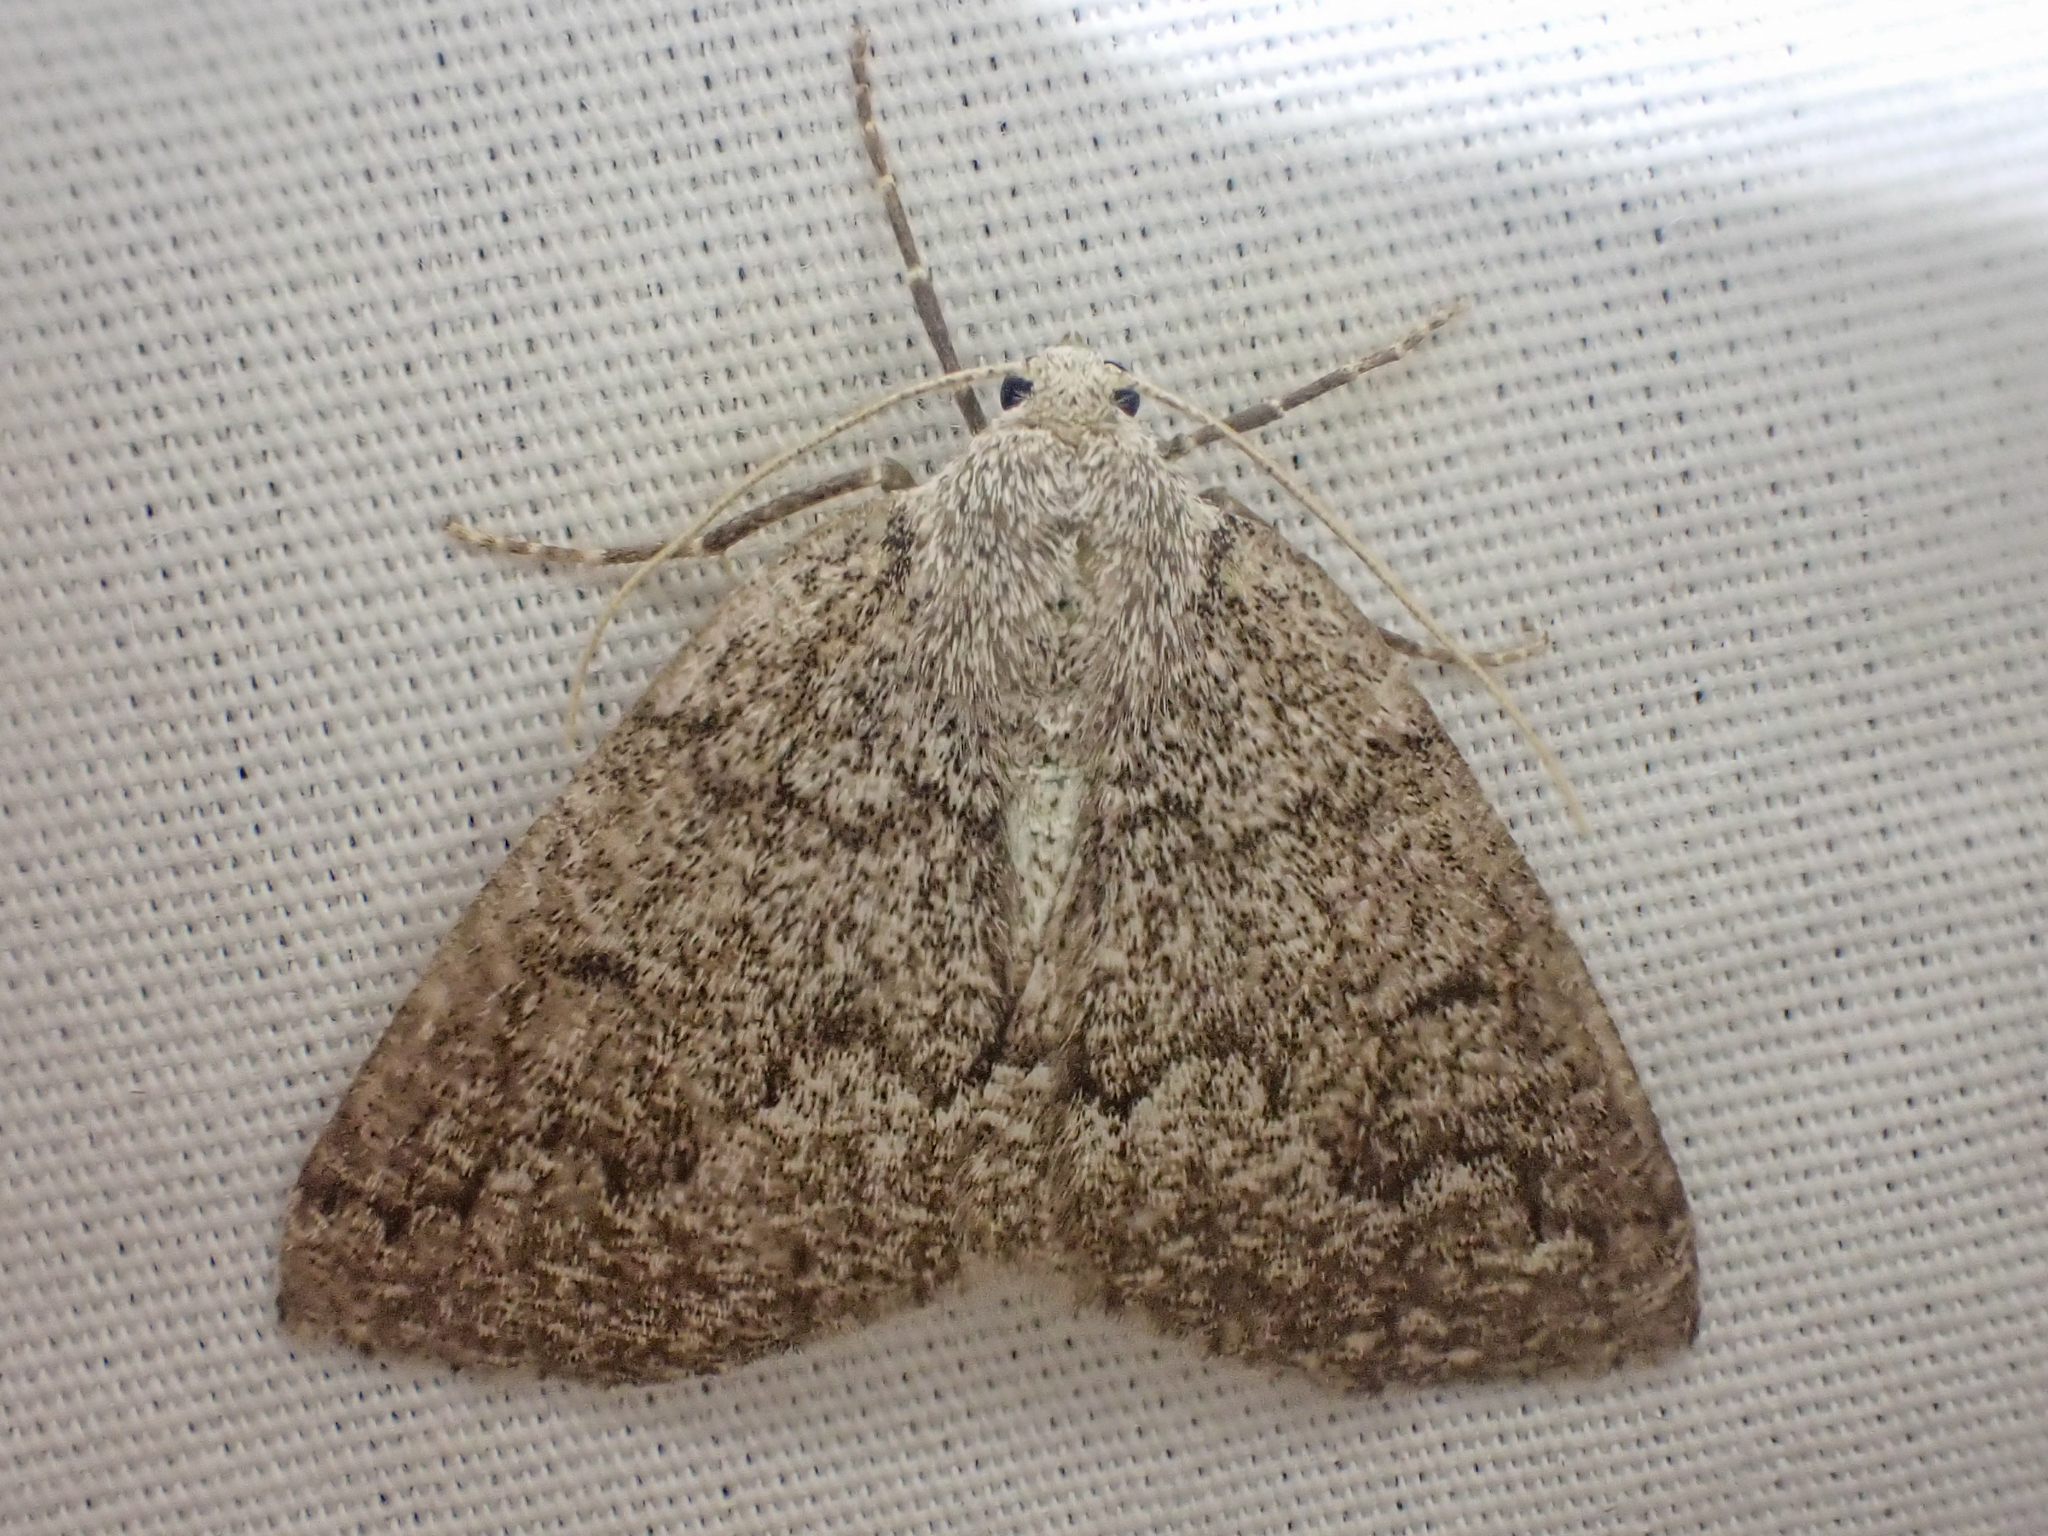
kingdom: Animalia
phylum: Arthropoda
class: Insecta
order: Lepidoptera
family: Geometridae
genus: Sabulodes
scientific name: Sabulodes
